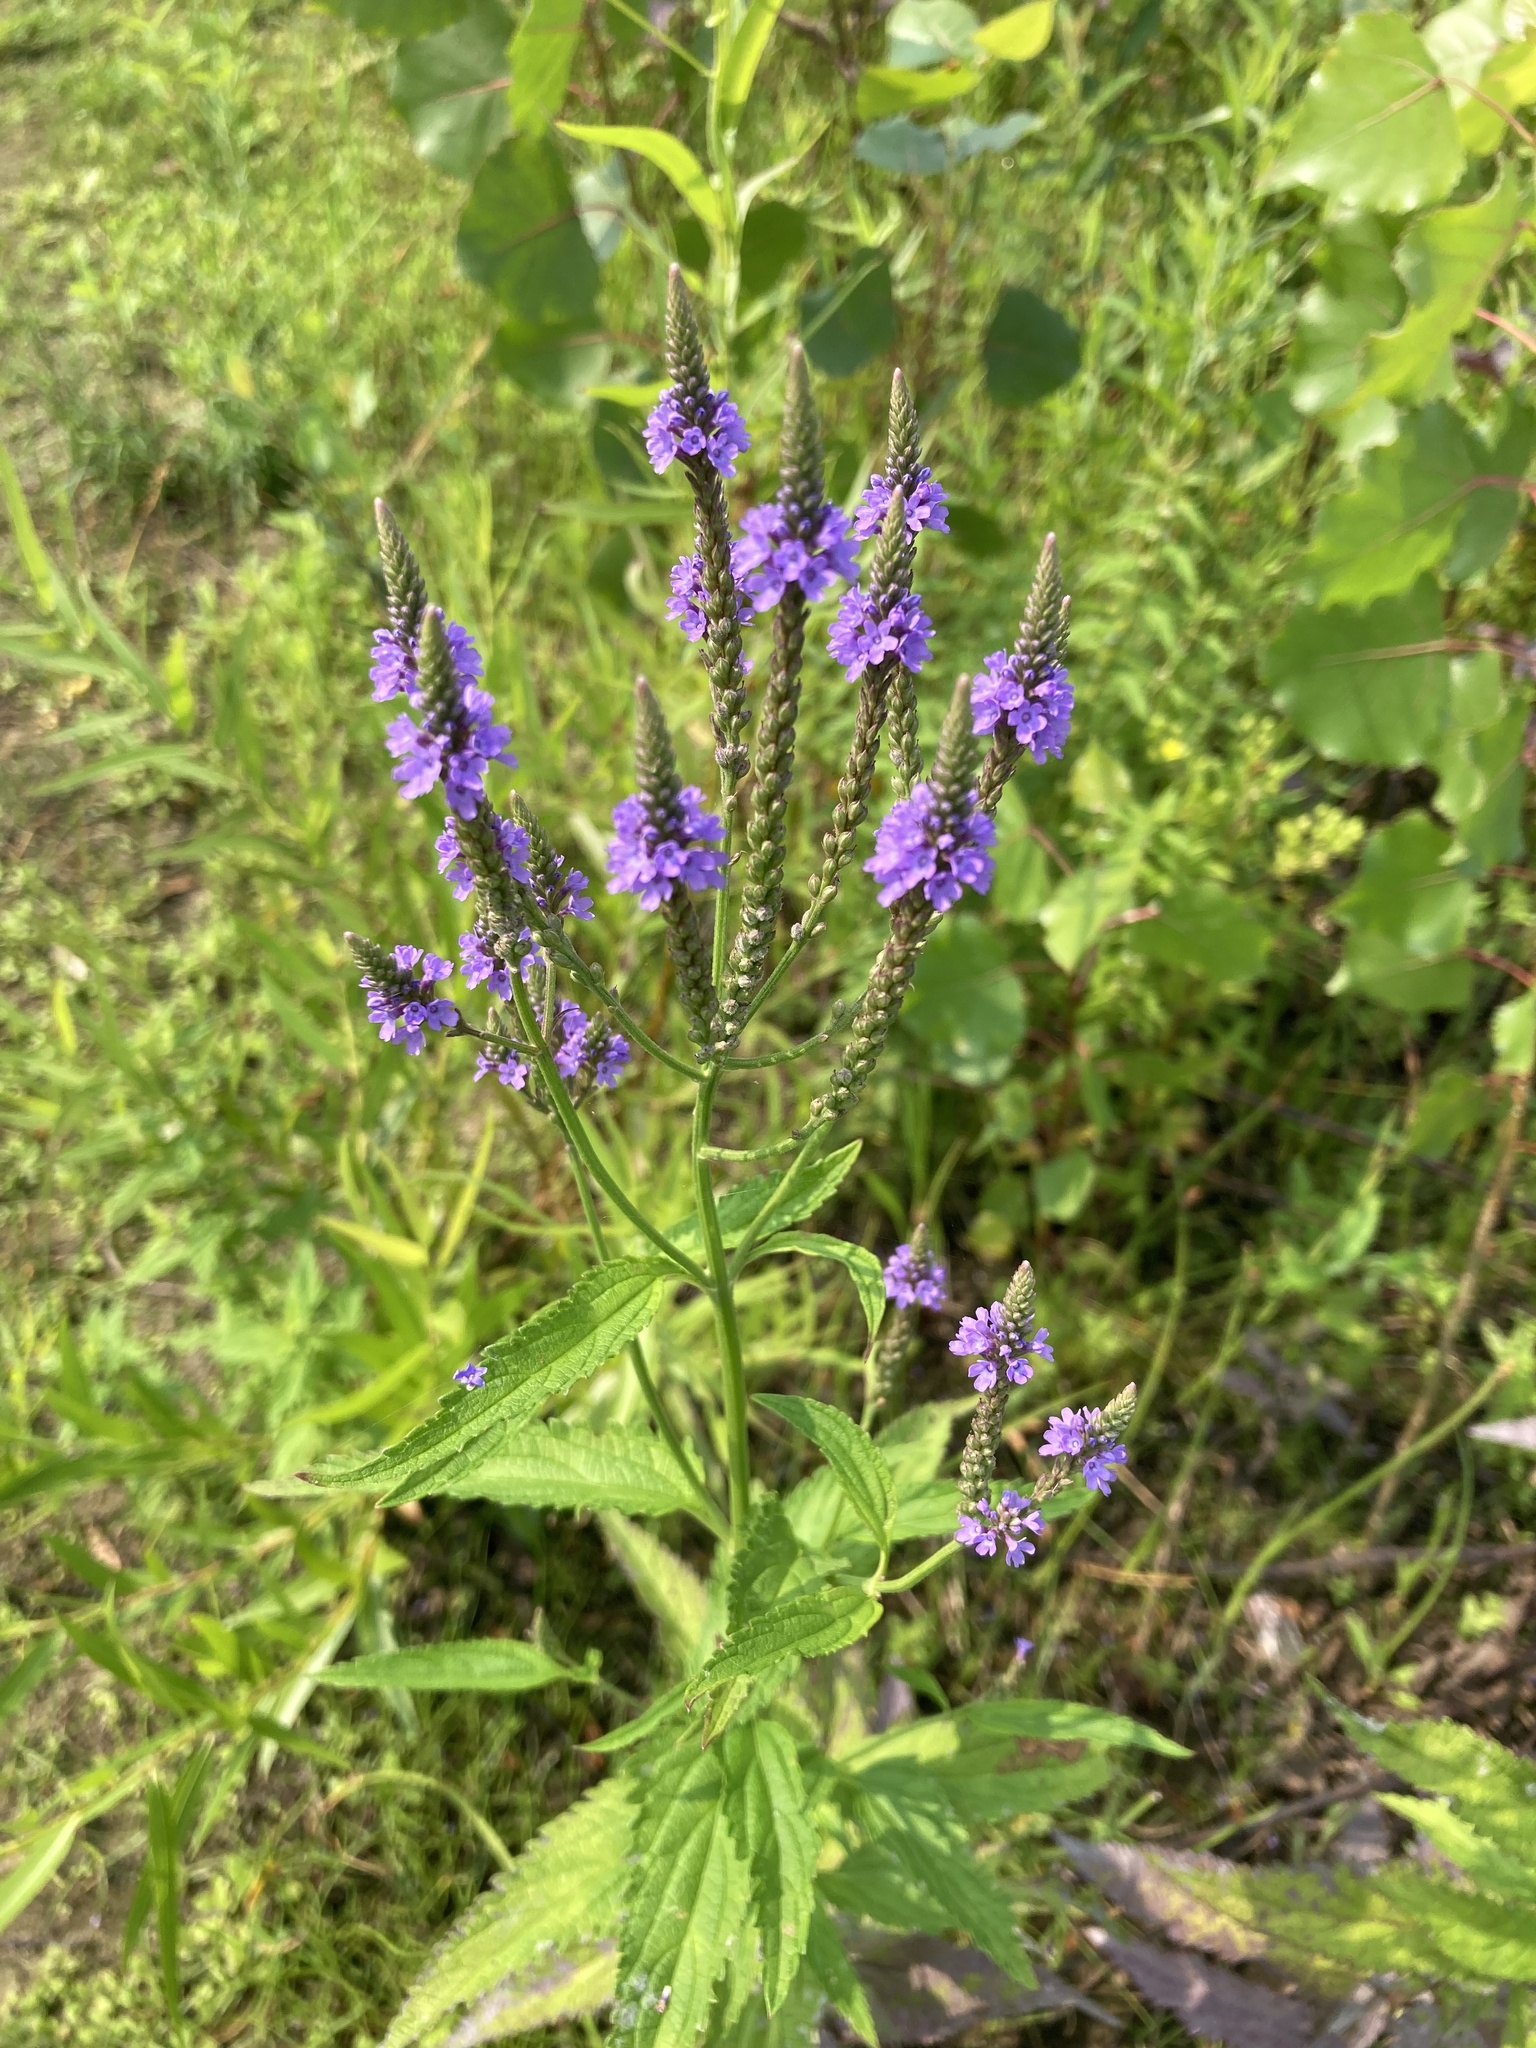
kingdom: Plantae
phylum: Tracheophyta
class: Magnoliopsida
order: Lamiales
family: Verbenaceae
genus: Verbena
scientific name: Verbena hastata
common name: American blue vervain
